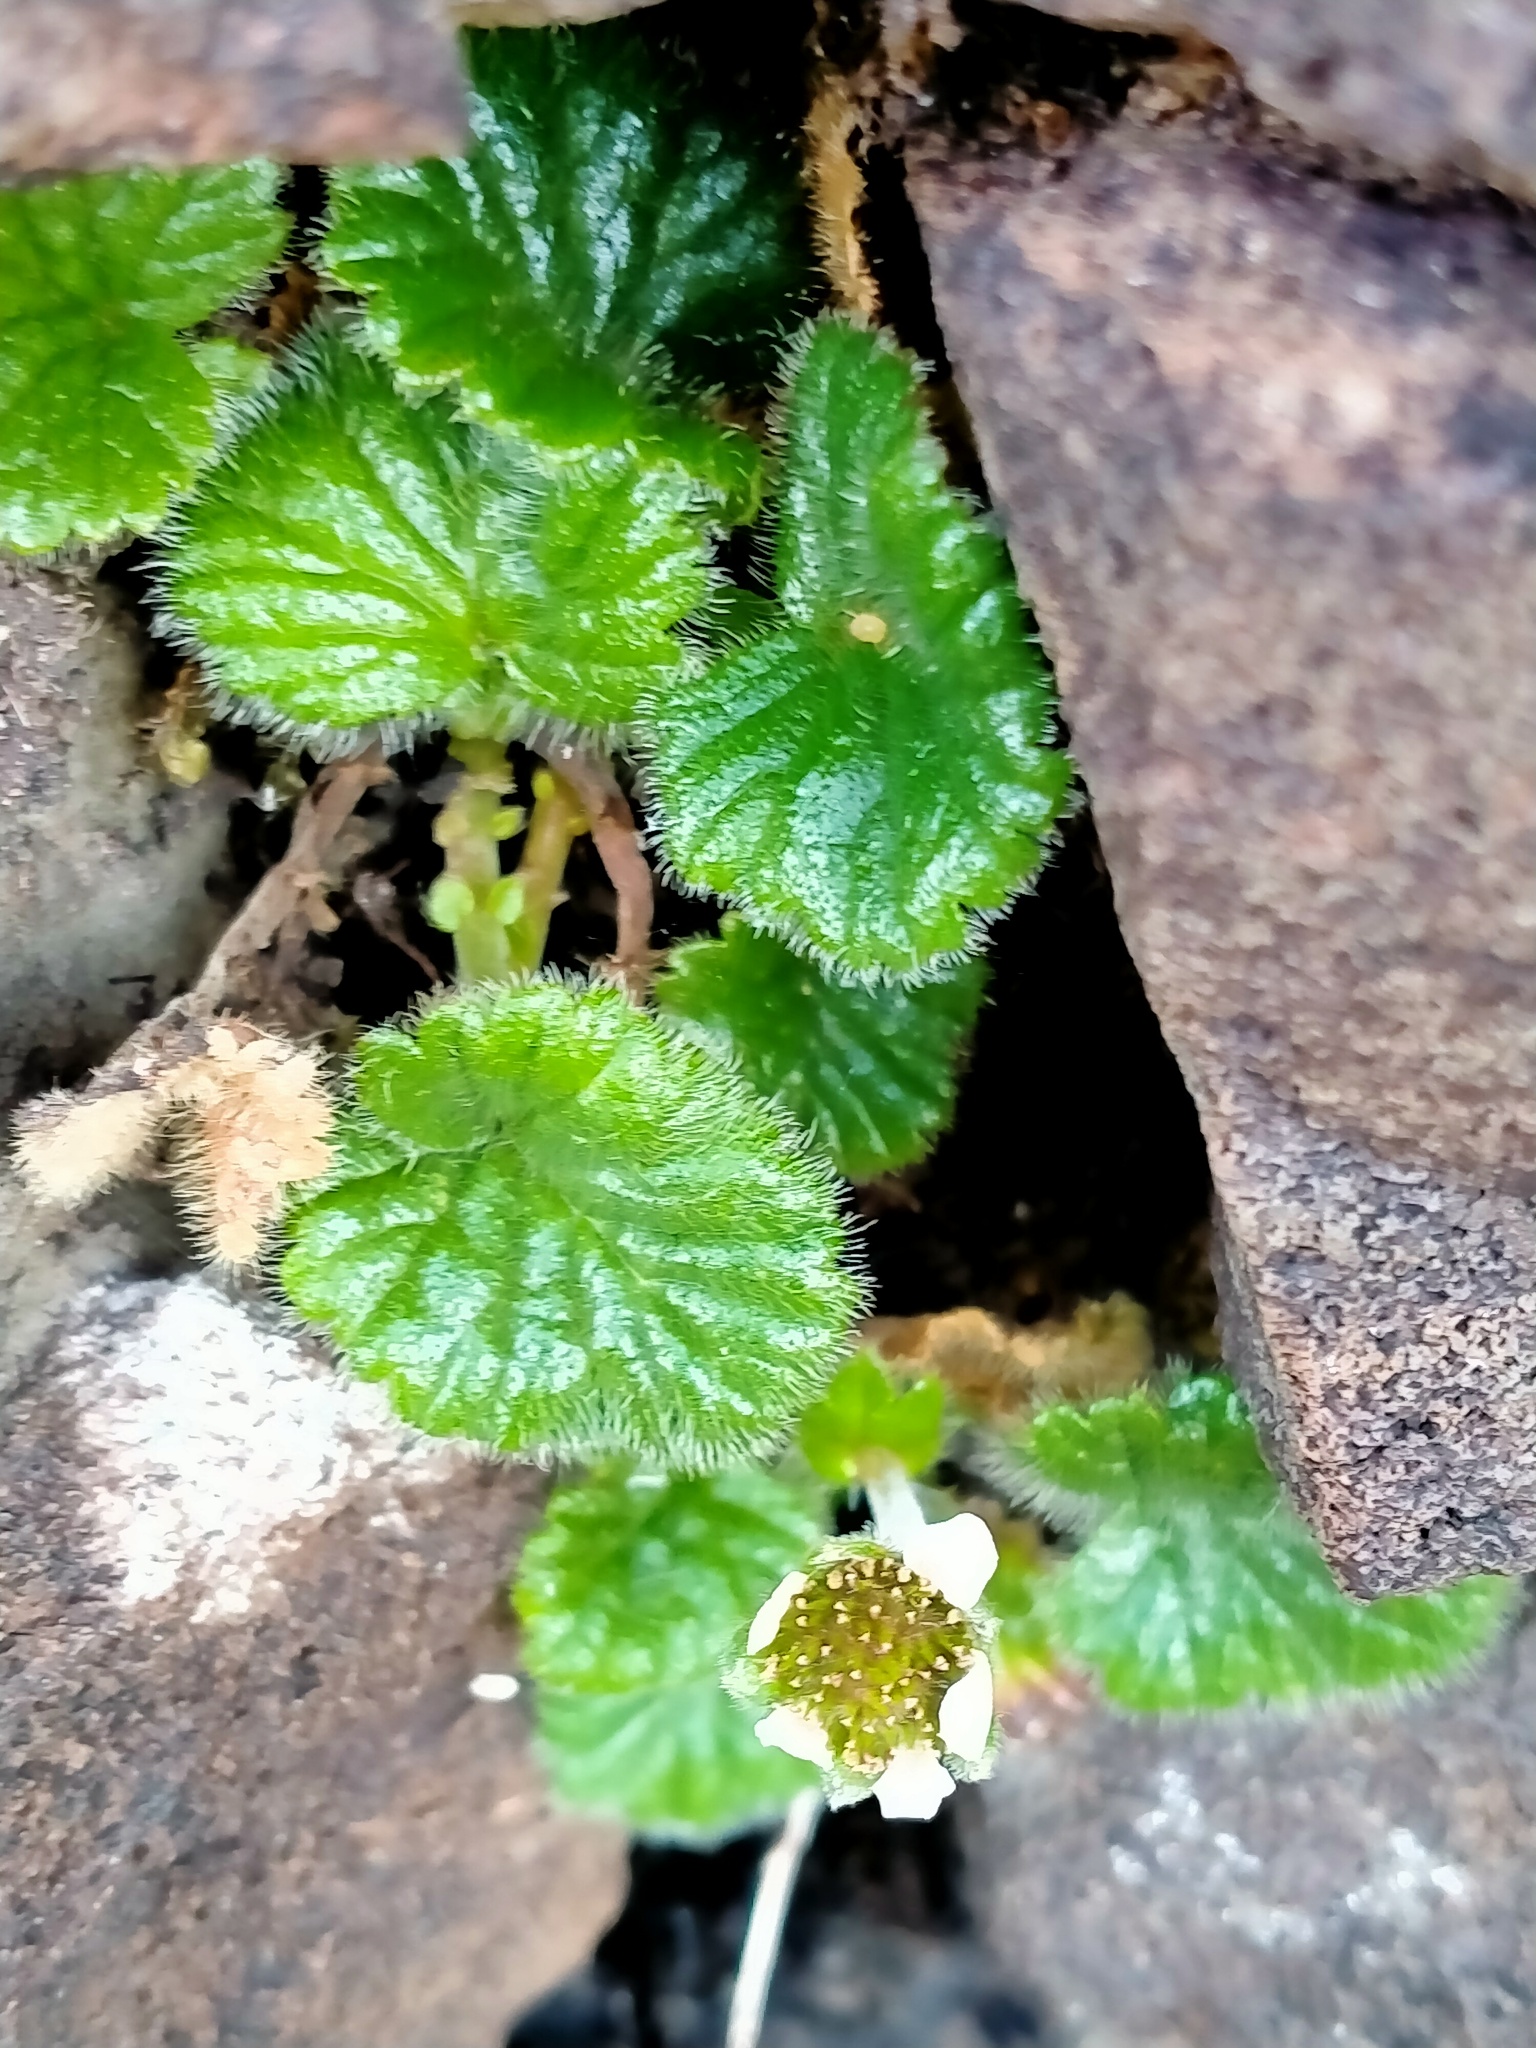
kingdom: Plantae
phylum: Tracheophyta
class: Magnoliopsida
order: Rosales
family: Rosaceae
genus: Geum
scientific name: Geum albiflorum
